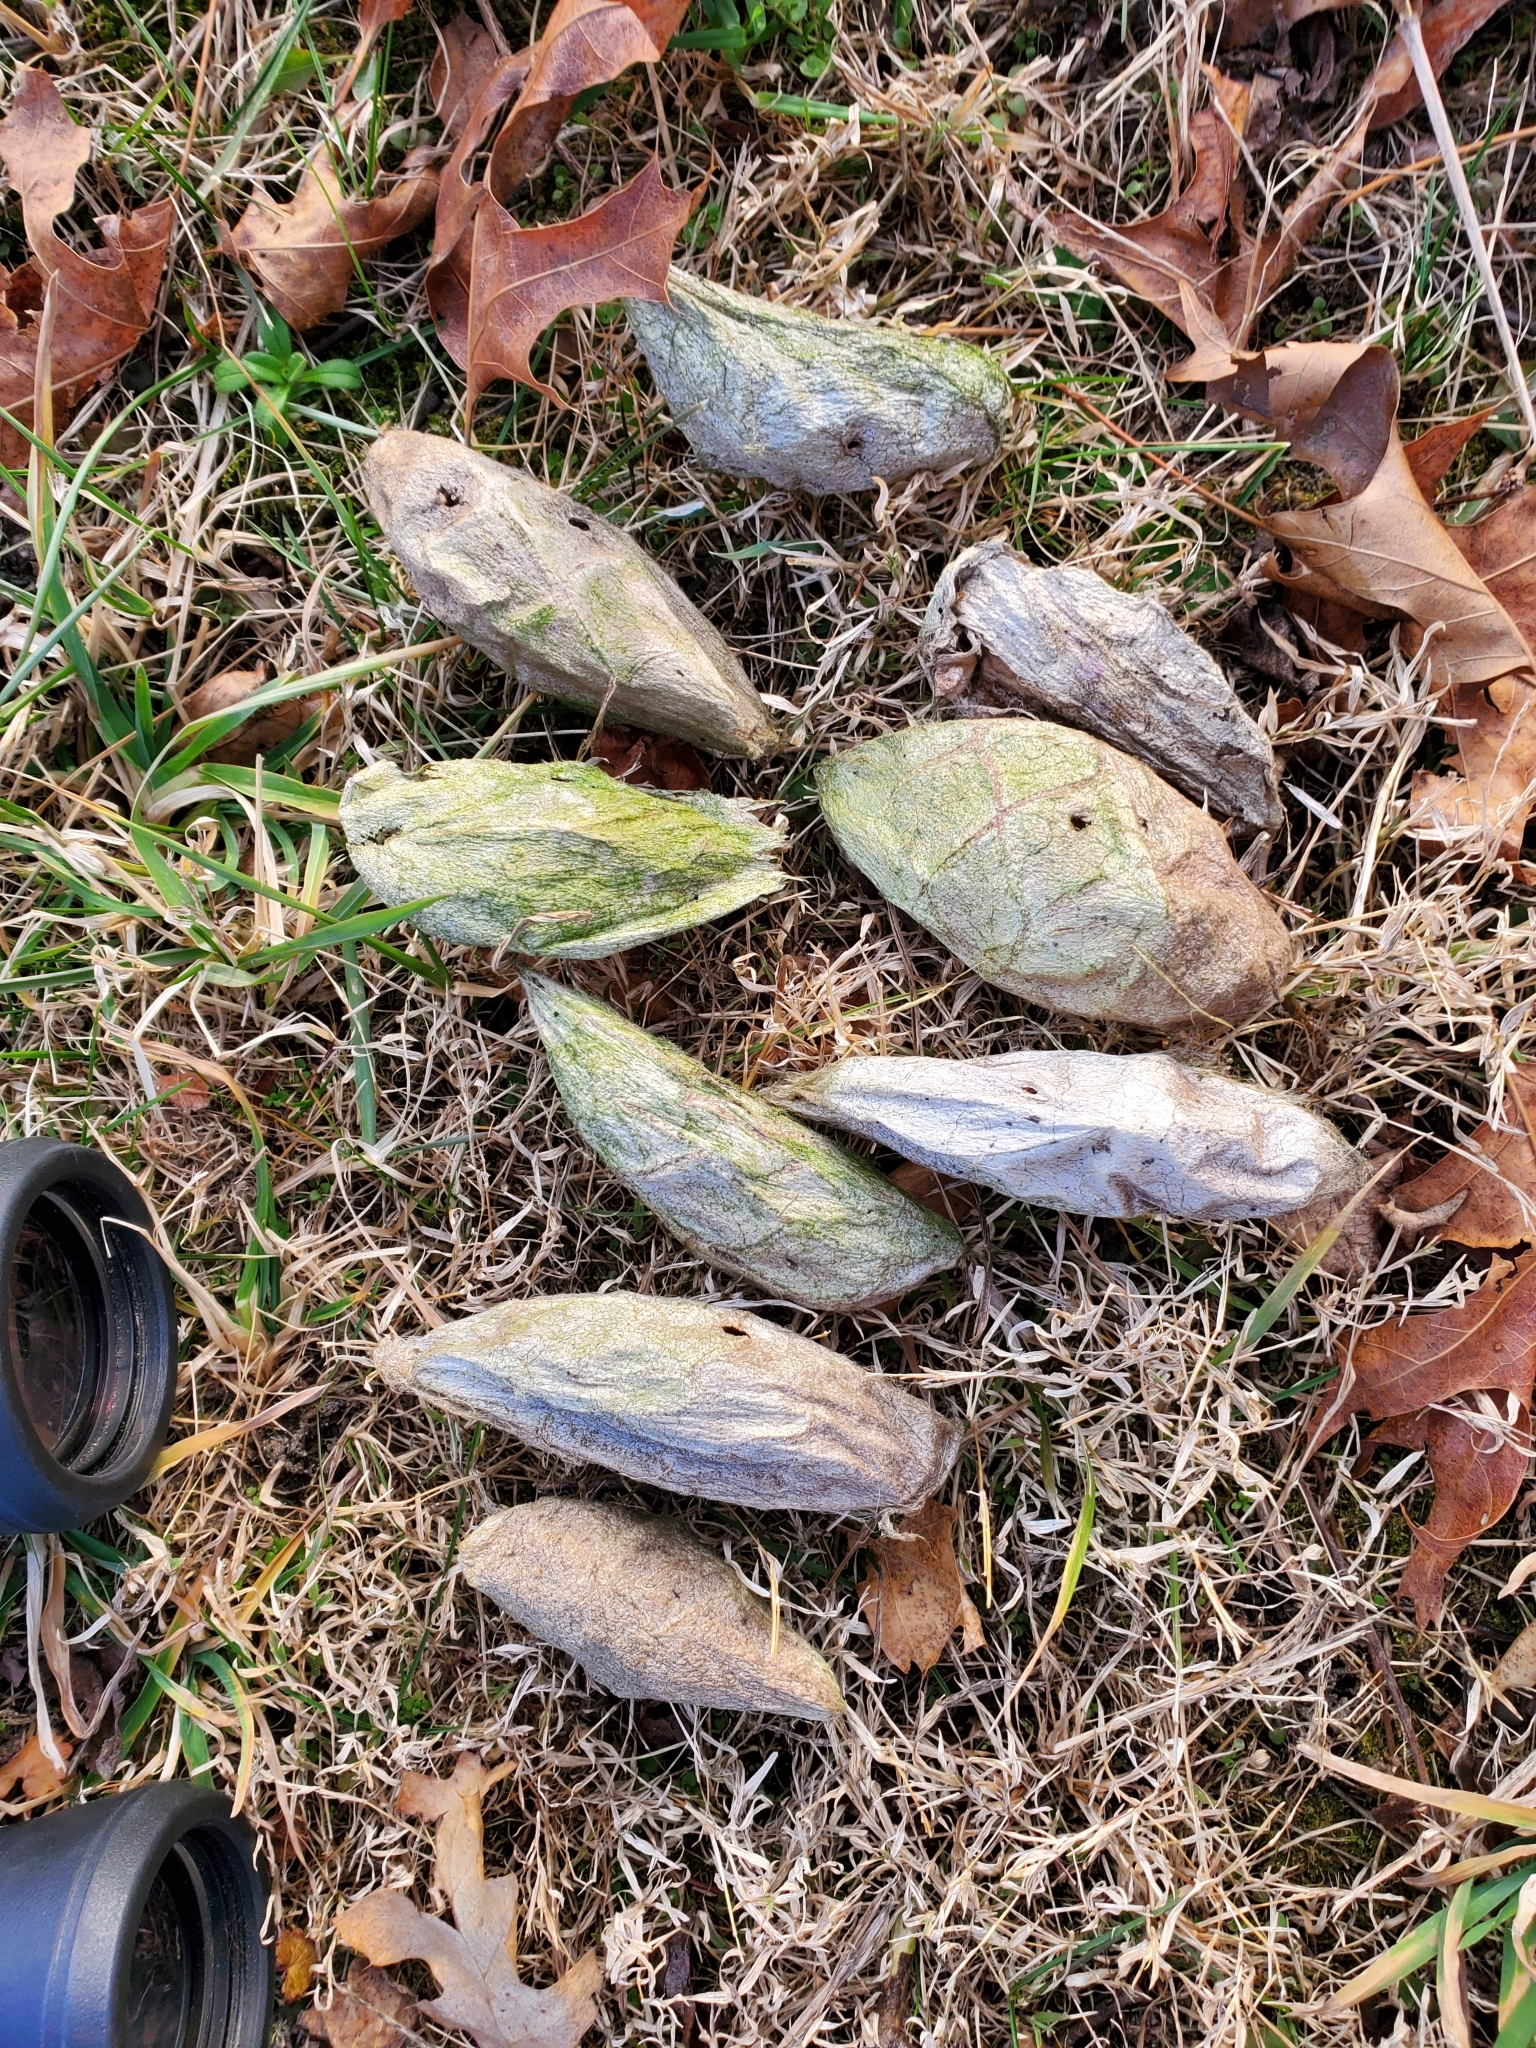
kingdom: Animalia
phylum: Arthropoda
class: Insecta
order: Lepidoptera
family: Saturniidae
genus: Hyalophora
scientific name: Hyalophora cecropia
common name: Cecropia silkmoth
